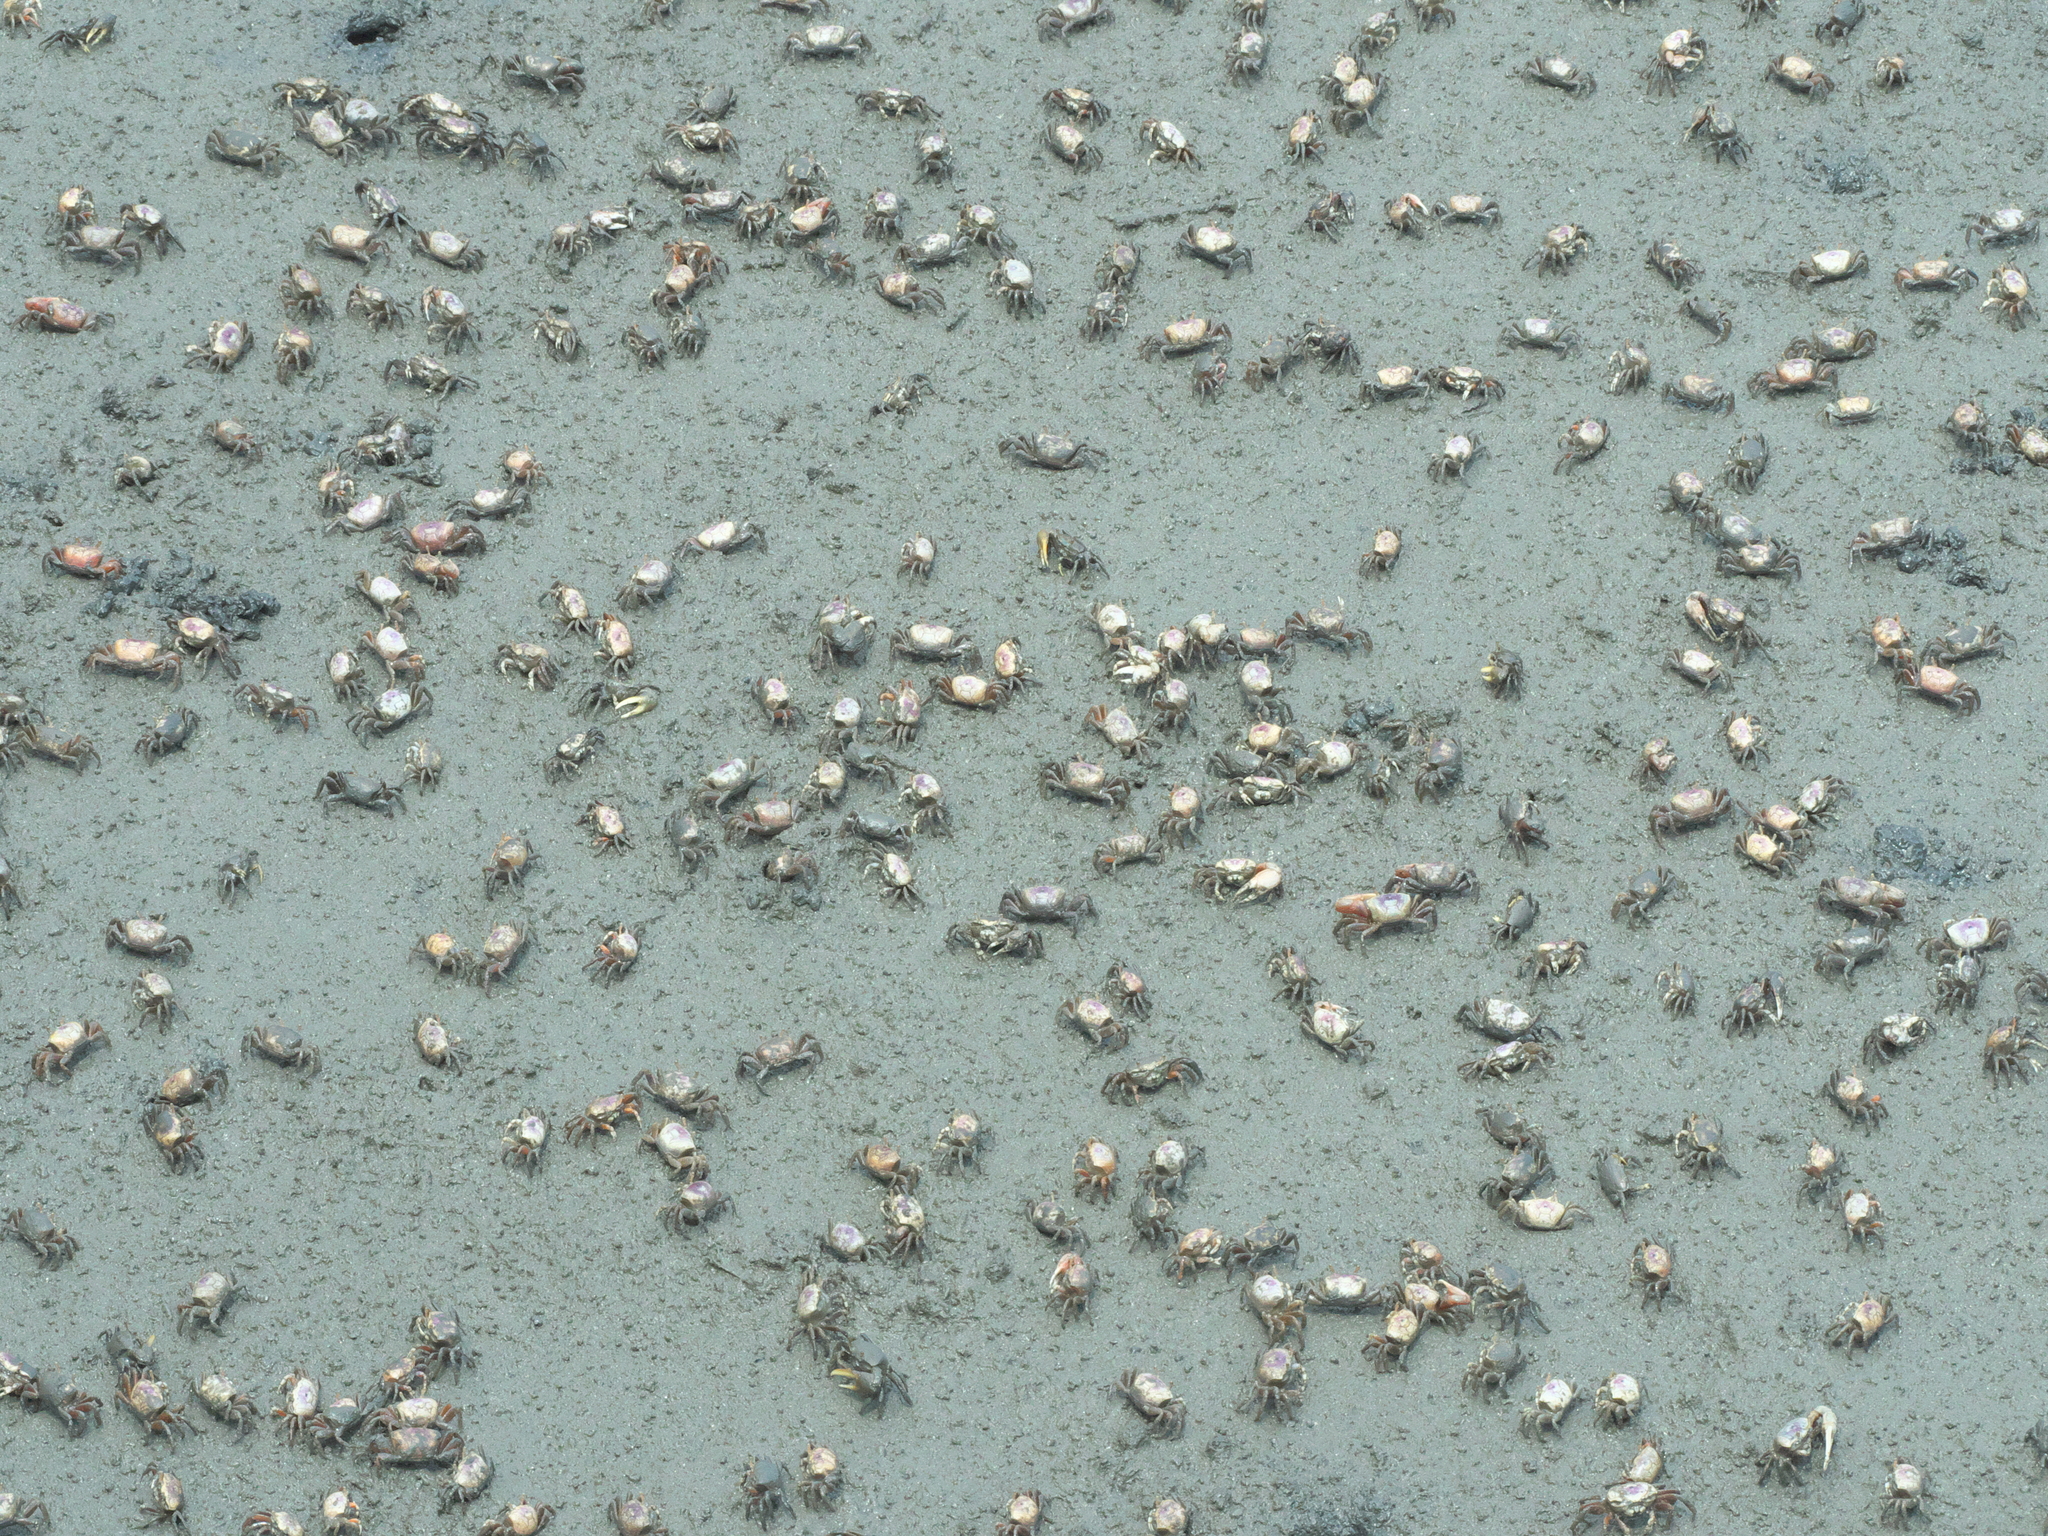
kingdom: Animalia
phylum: Arthropoda
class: Malacostraca
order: Decapoda
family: Ocypodidae
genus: Leptuca
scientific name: Leptuca pugilator
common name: Atlantic sand fiddler crab
